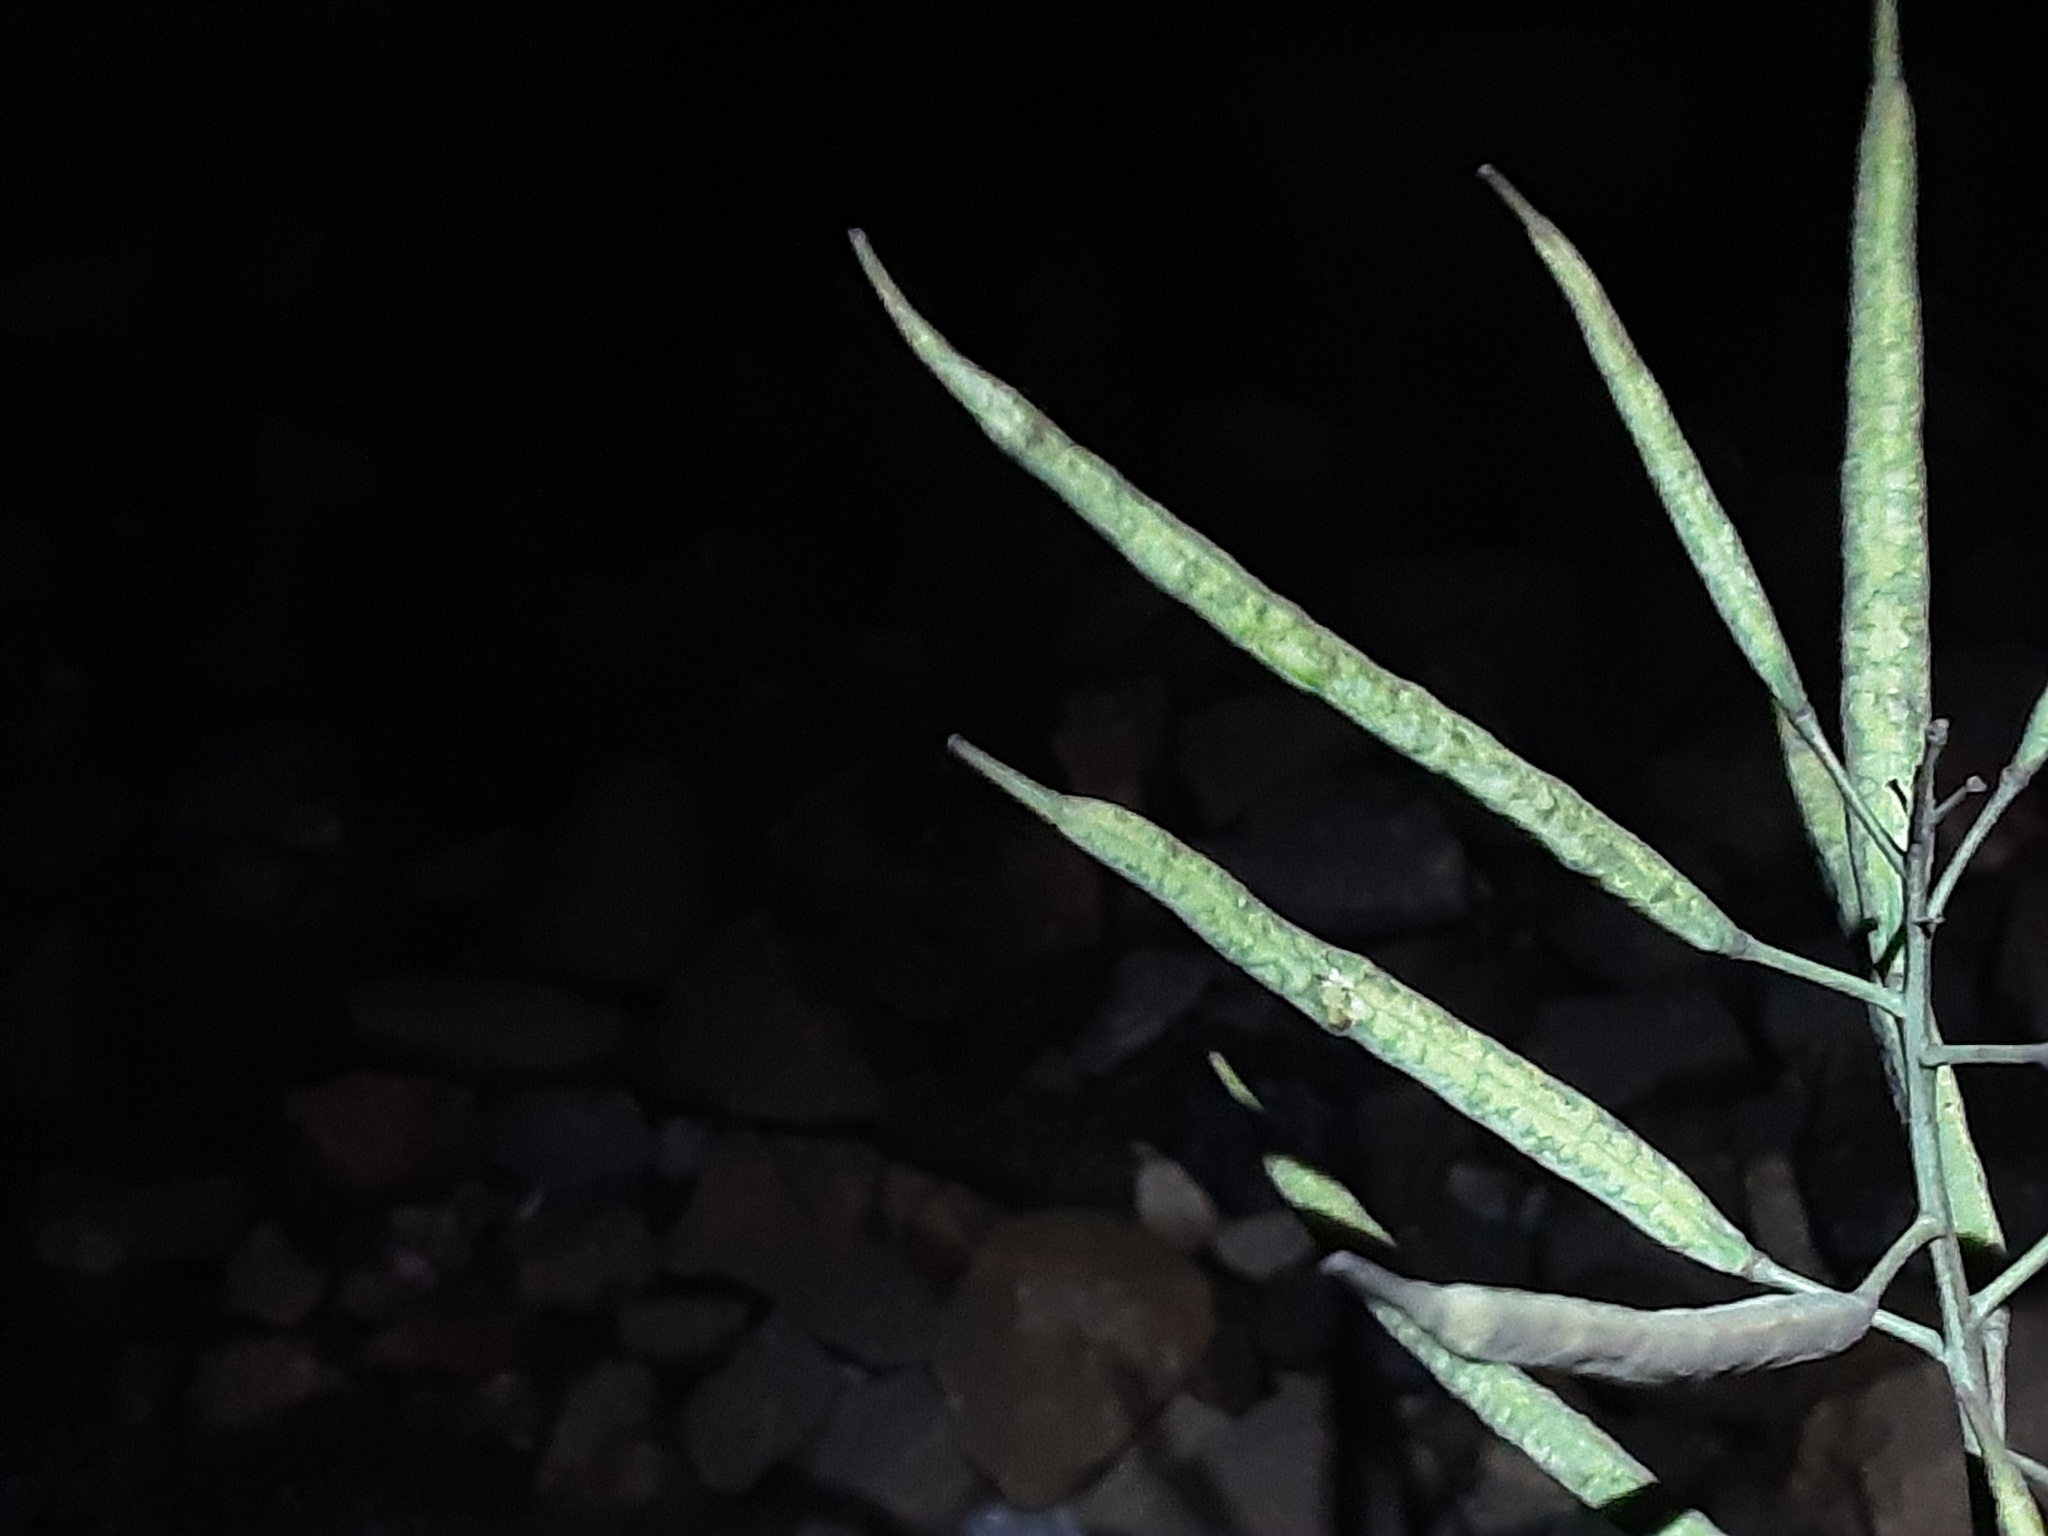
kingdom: Plantae
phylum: Tracheophyta
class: Magnoliopsida
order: Brassicales
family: Brassicaceae
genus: Brassica
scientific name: Brassica napus
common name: Rape
